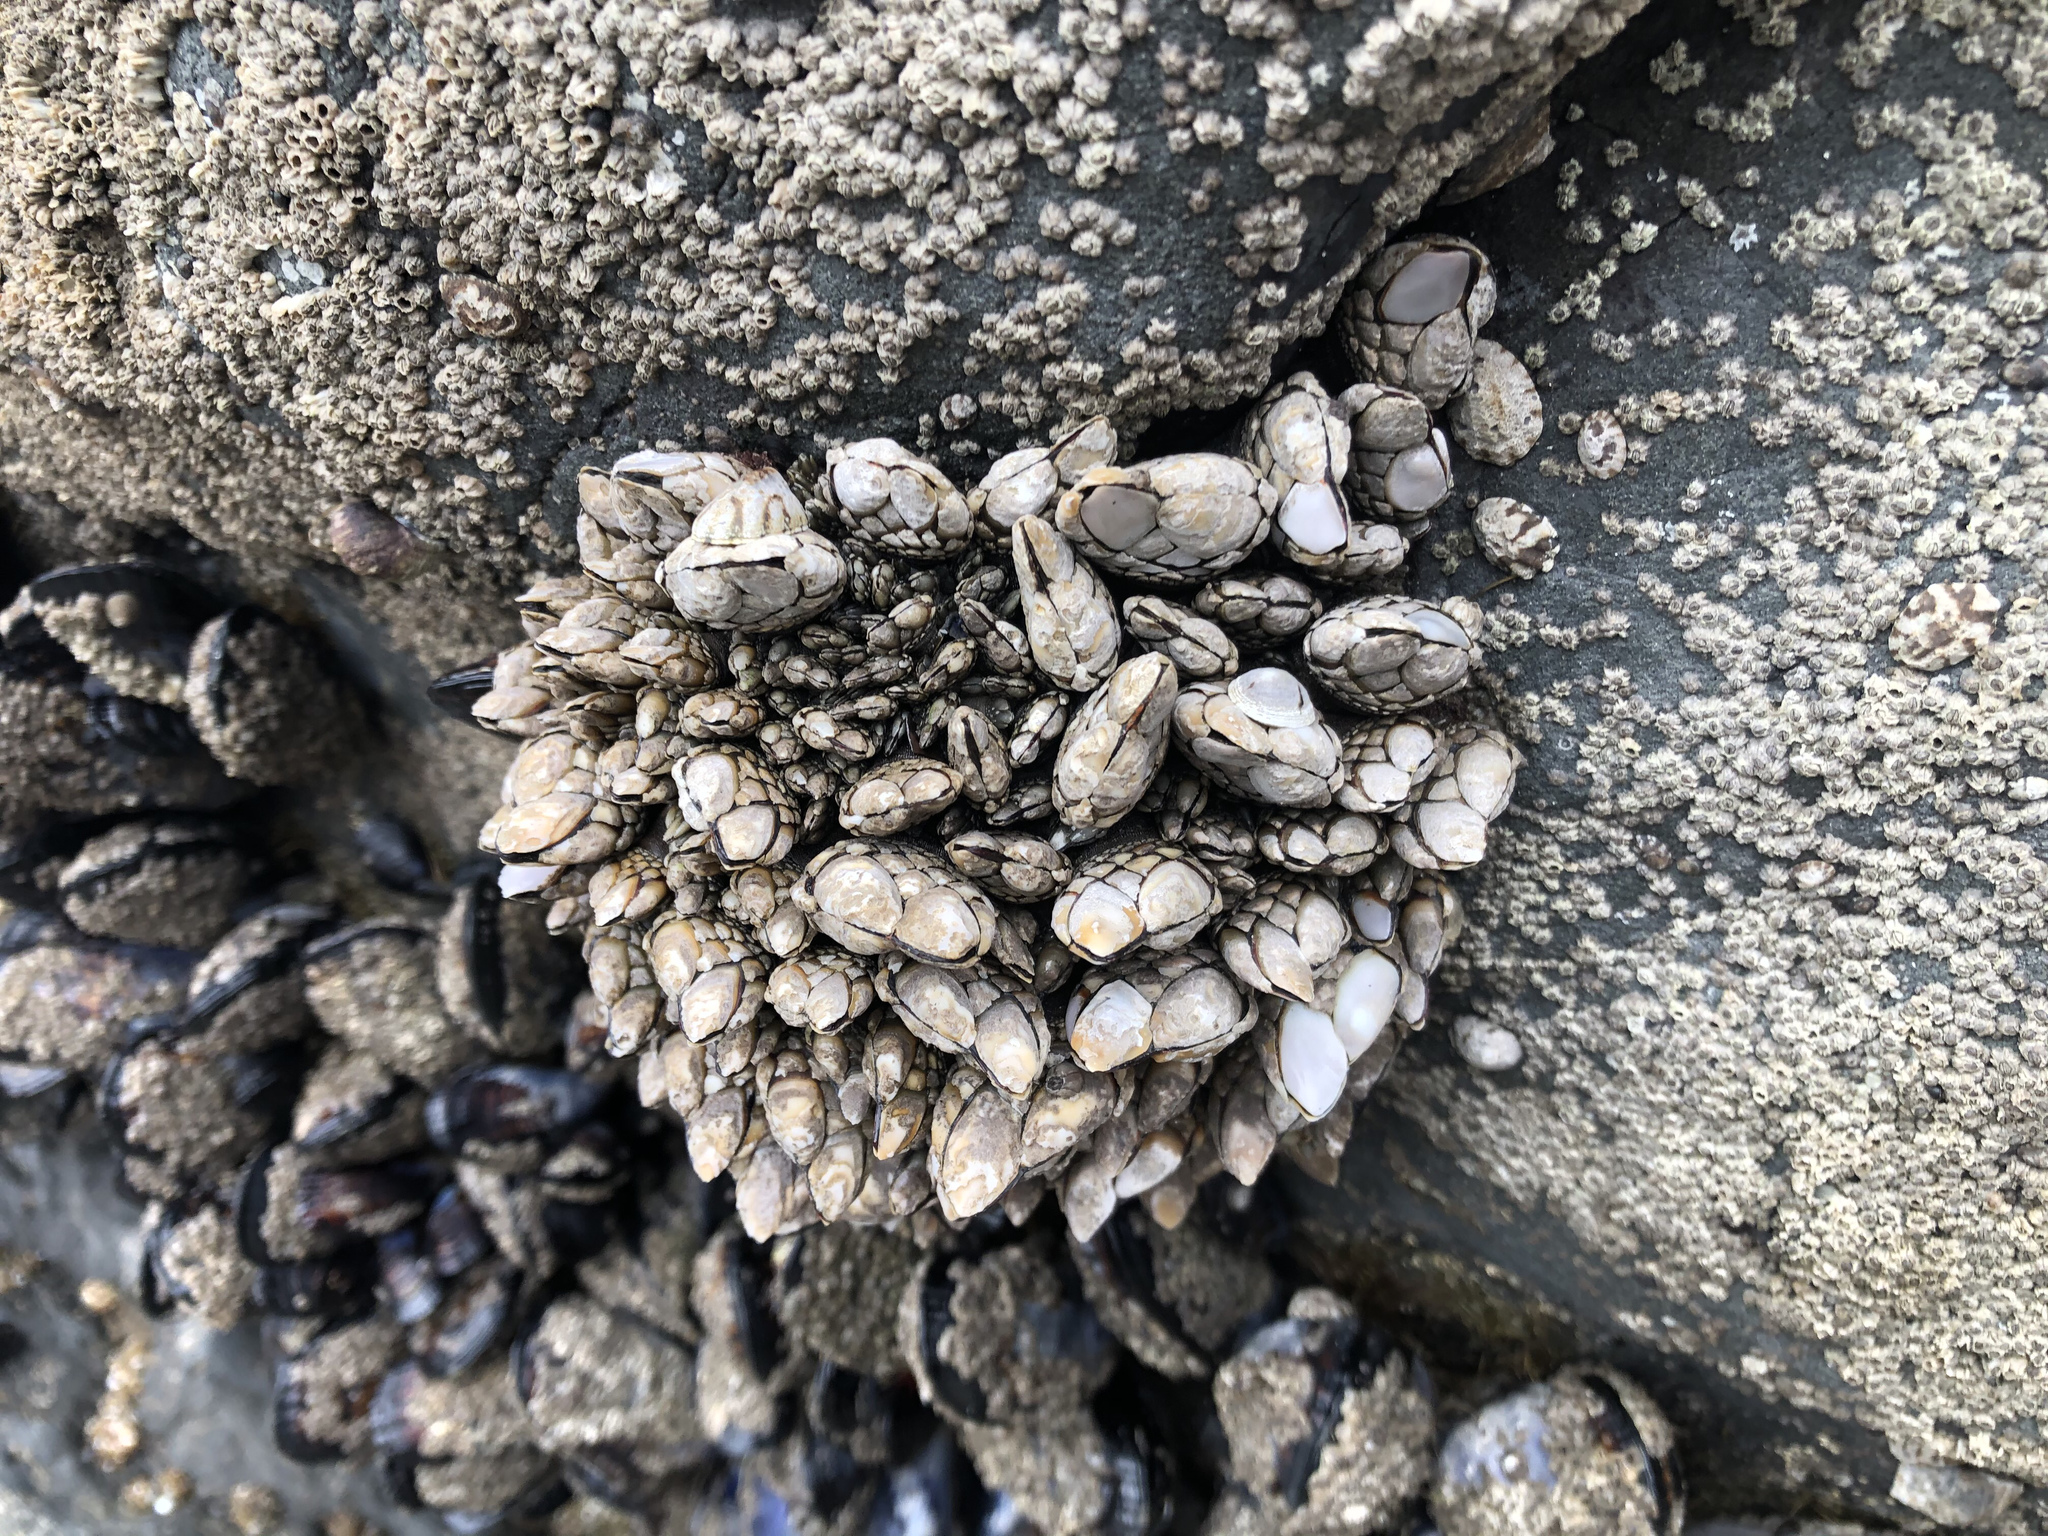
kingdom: Animalia
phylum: Arthropoda
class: Maxillopoda
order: Pedunculata
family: Pollicipedidae
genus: Pollicipes
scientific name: Pollicipes polymerus
